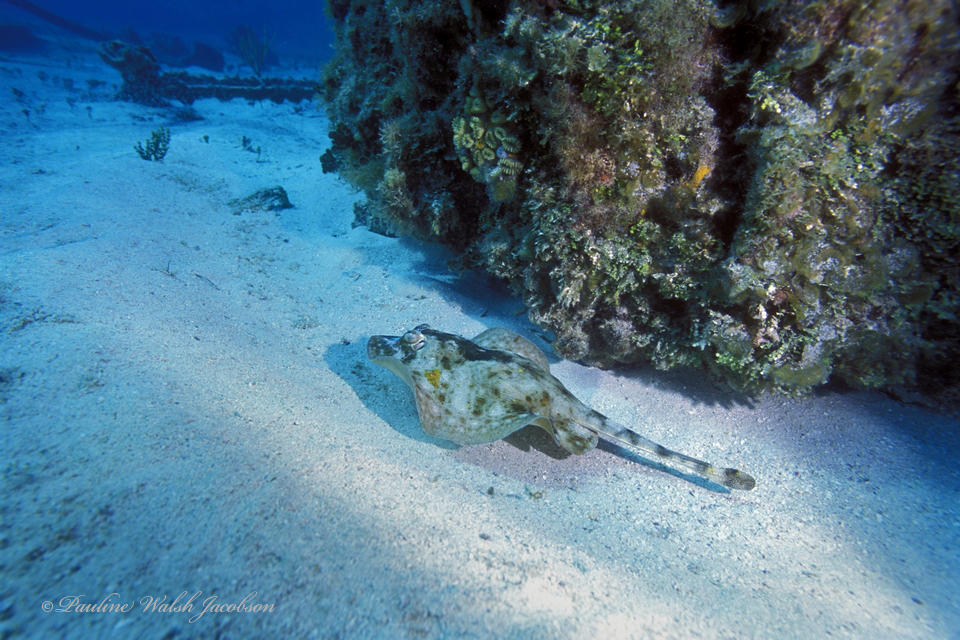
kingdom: Animalia
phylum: Chordata
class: Elasmobranchii
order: Myliobatiformes
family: Urotrygonidae
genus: Urobatis
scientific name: Urobatis jamaicensis
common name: Yellow stingray
